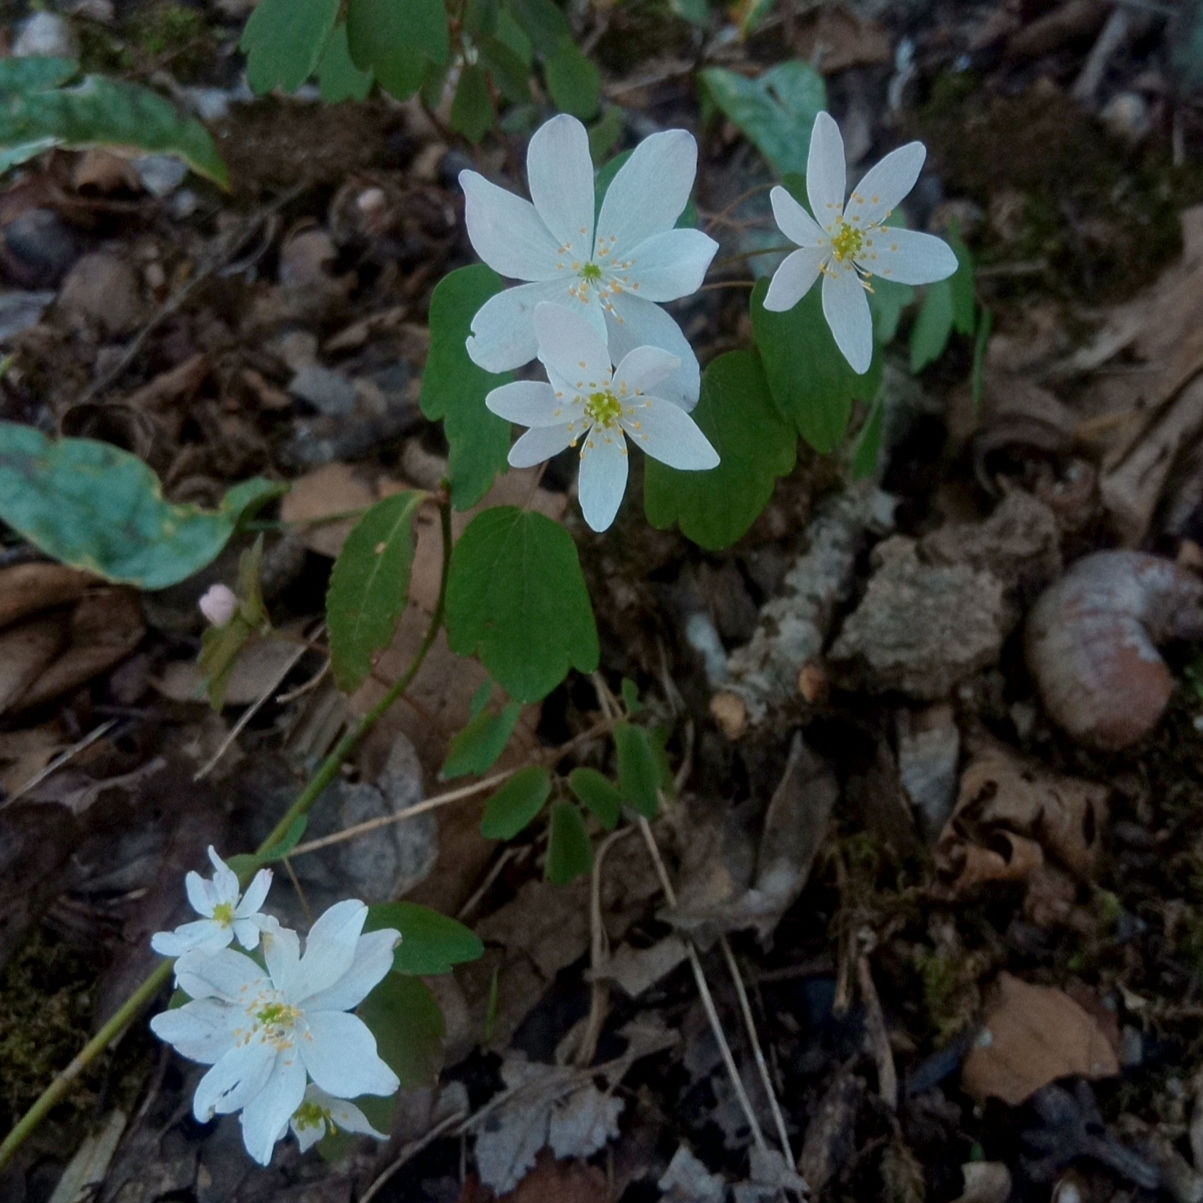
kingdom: Plantae
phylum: Tracheophyta
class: Magnoliopsida
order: Ranunculales
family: Ranunculaceae
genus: Thalictrum
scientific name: Thalictrum thalictroides
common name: Rue-anemone
